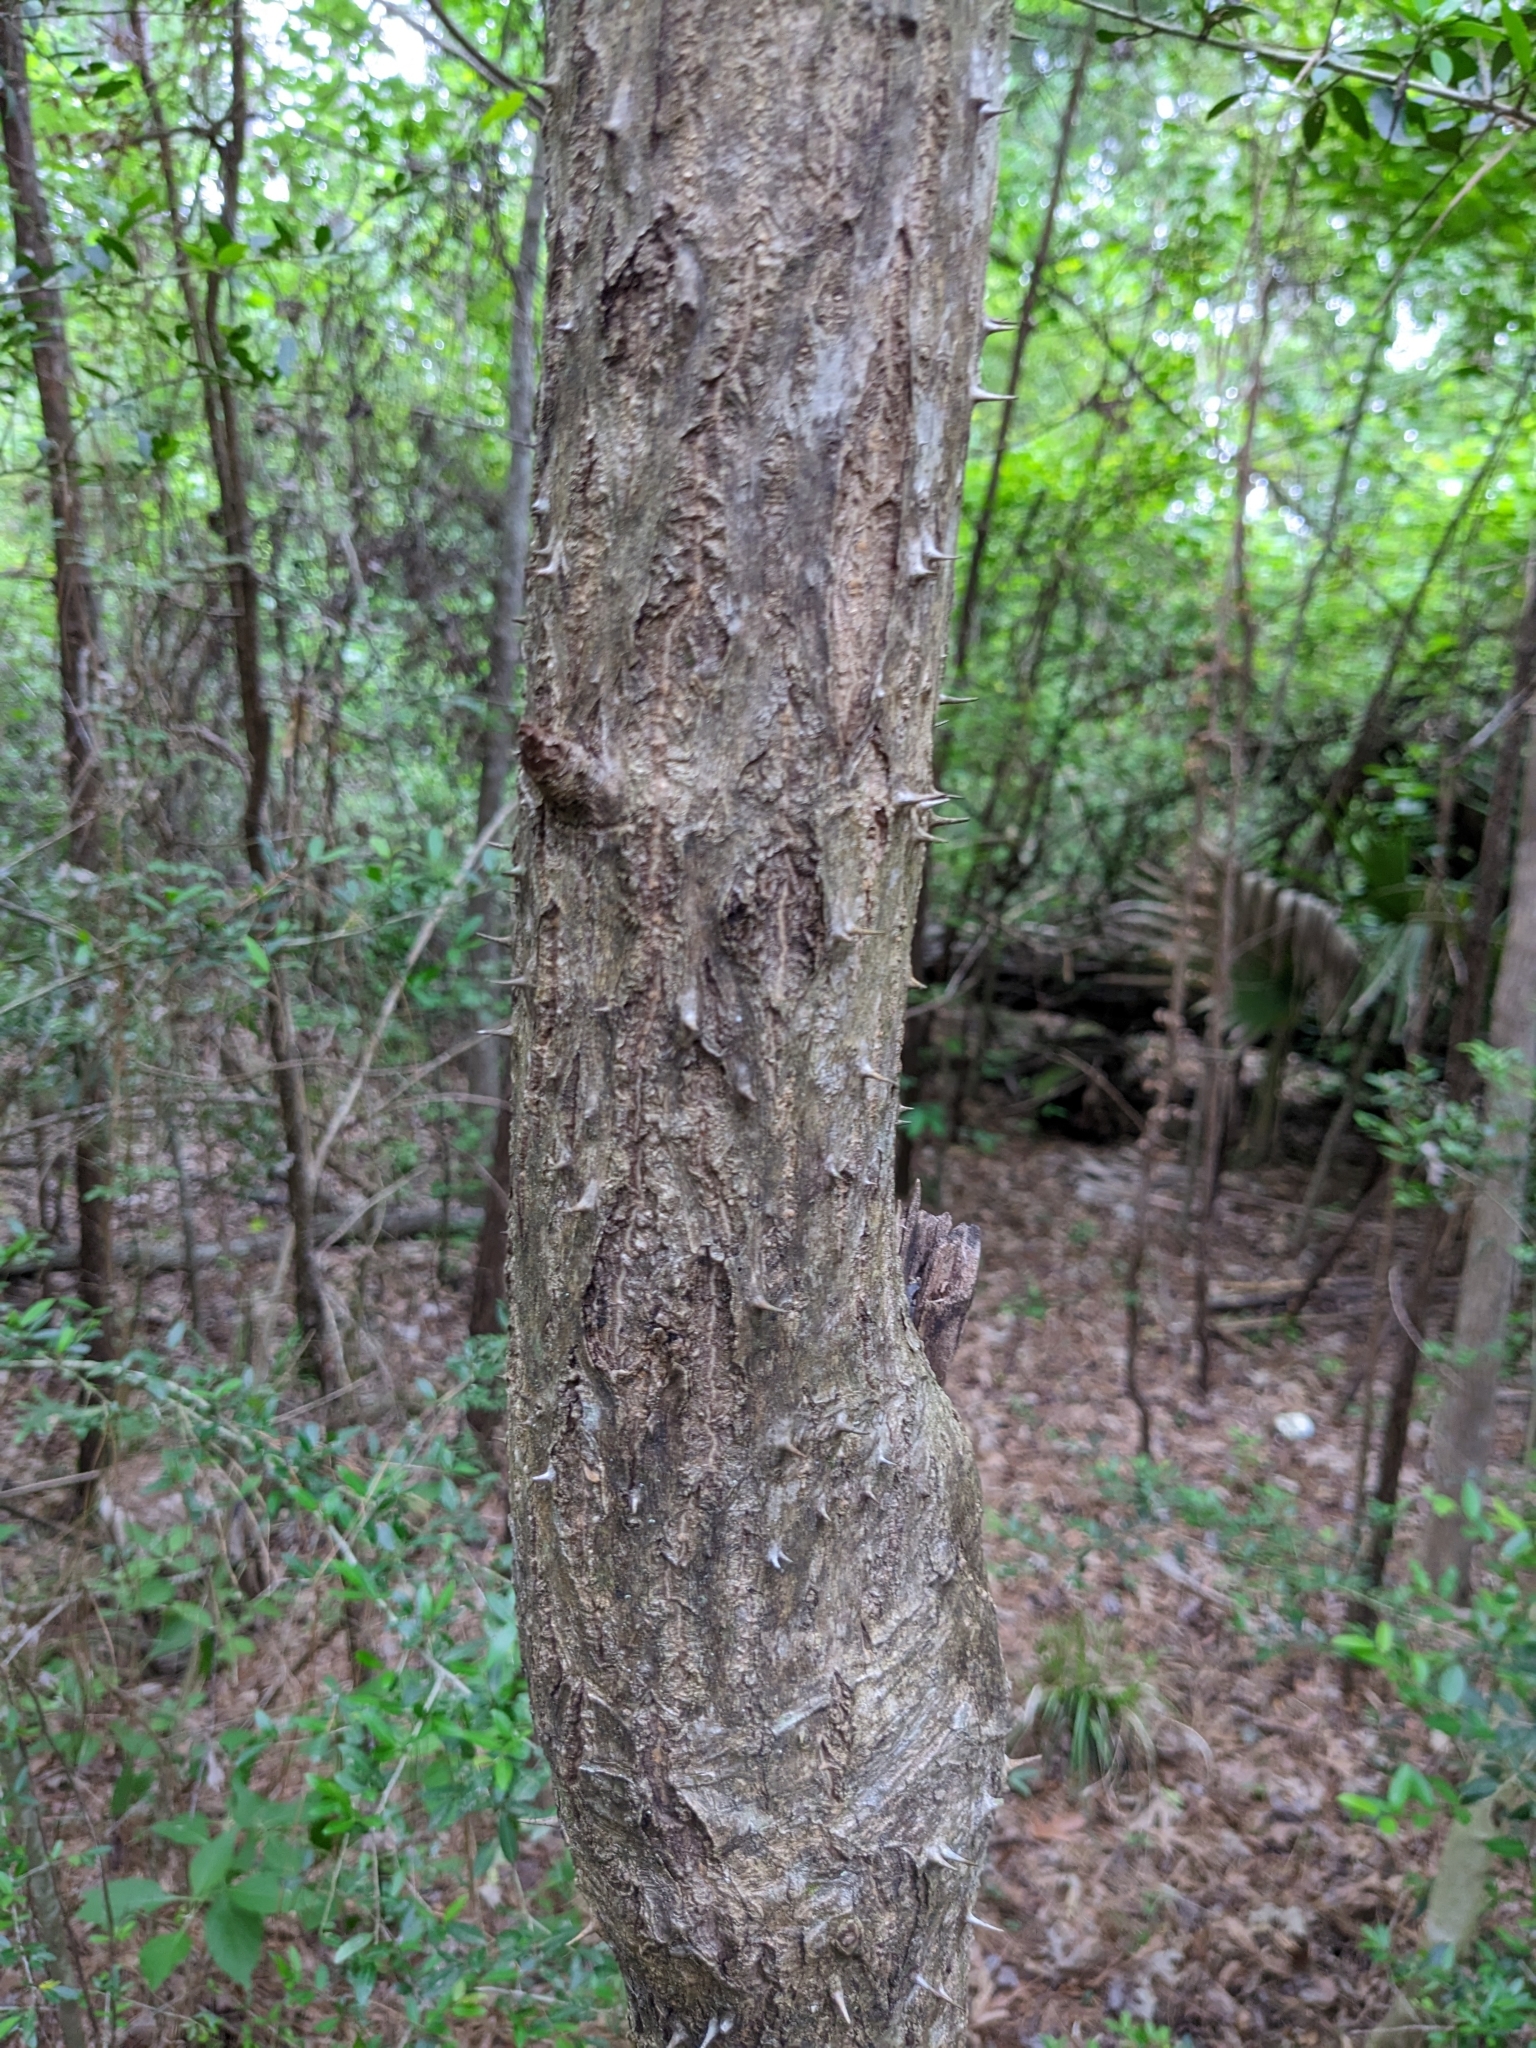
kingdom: Plantae
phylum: Tracheophyta
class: Magnoliopsida
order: Apiales
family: Araliaceae
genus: Aralia
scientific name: Aralia spinosa
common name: Hercules'-club
